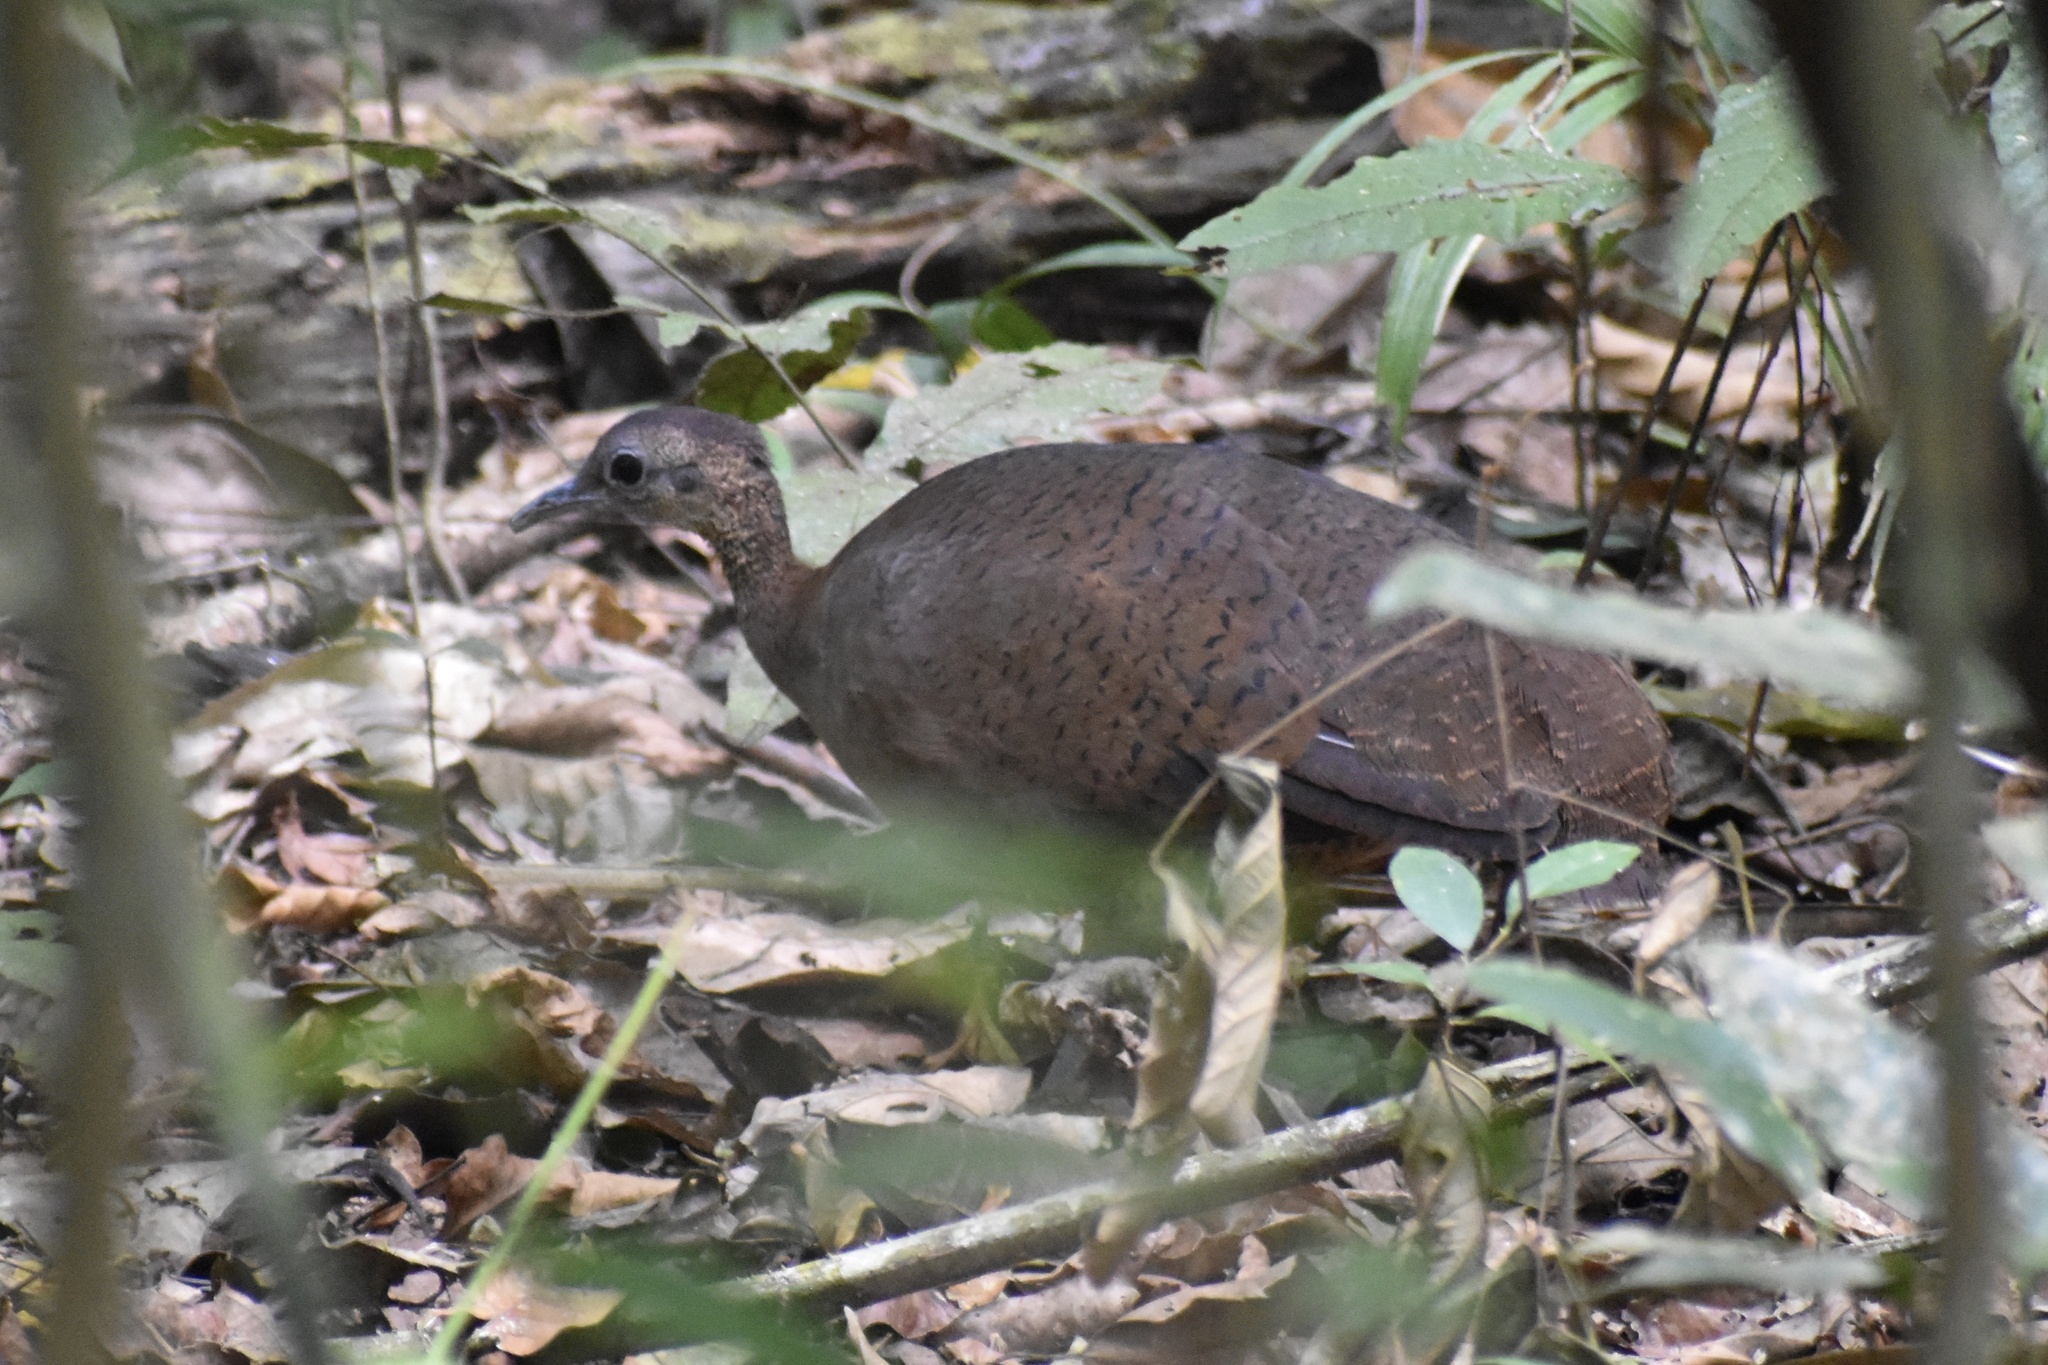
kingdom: Animalia
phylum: Chordata
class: Aves
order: Tinamiformes
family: Tinamidae
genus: Tinamus
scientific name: Tinamus major
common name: Great tinamou
